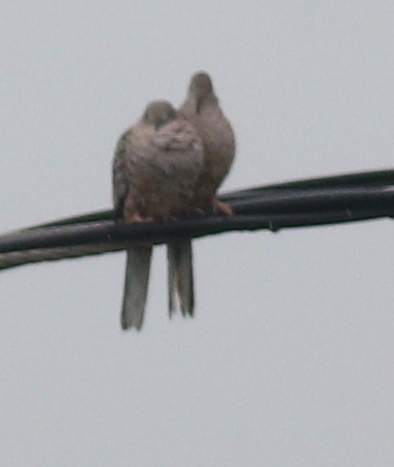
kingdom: Animalia
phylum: Chordata
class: Aves
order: Columbiformes
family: Columbidae
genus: Columbina
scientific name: Columbina inca
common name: Inca dove
